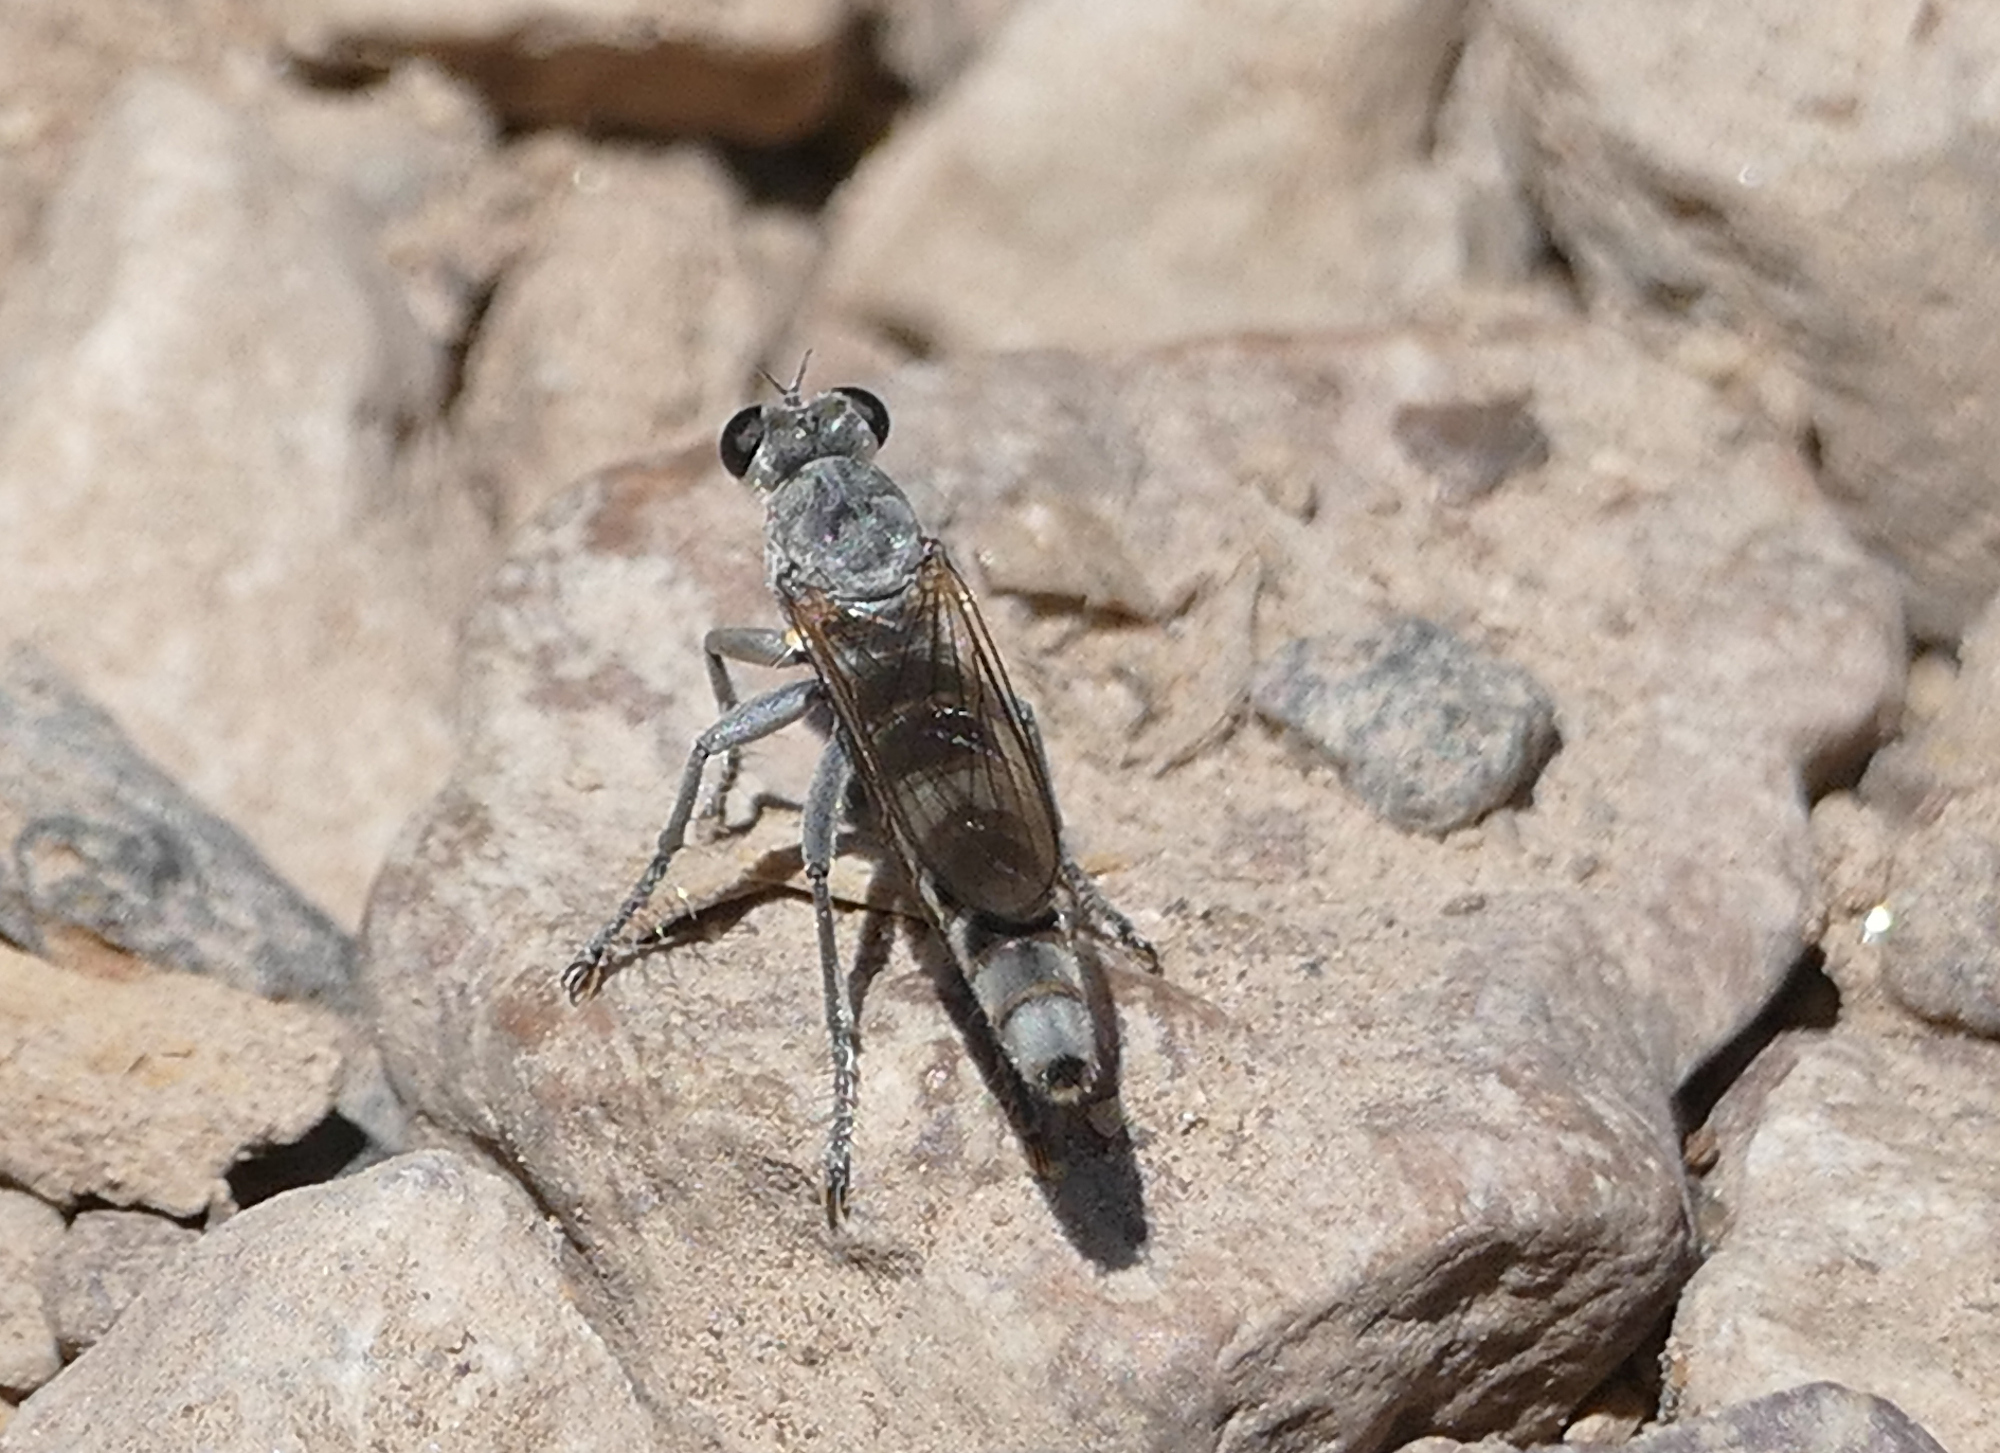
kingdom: Animalia
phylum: Arthropoda
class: Insecta
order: Diptera
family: Asilidae
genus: Stichopogon
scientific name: Stichopogon trifasciatus
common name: Three-banded robber fly
